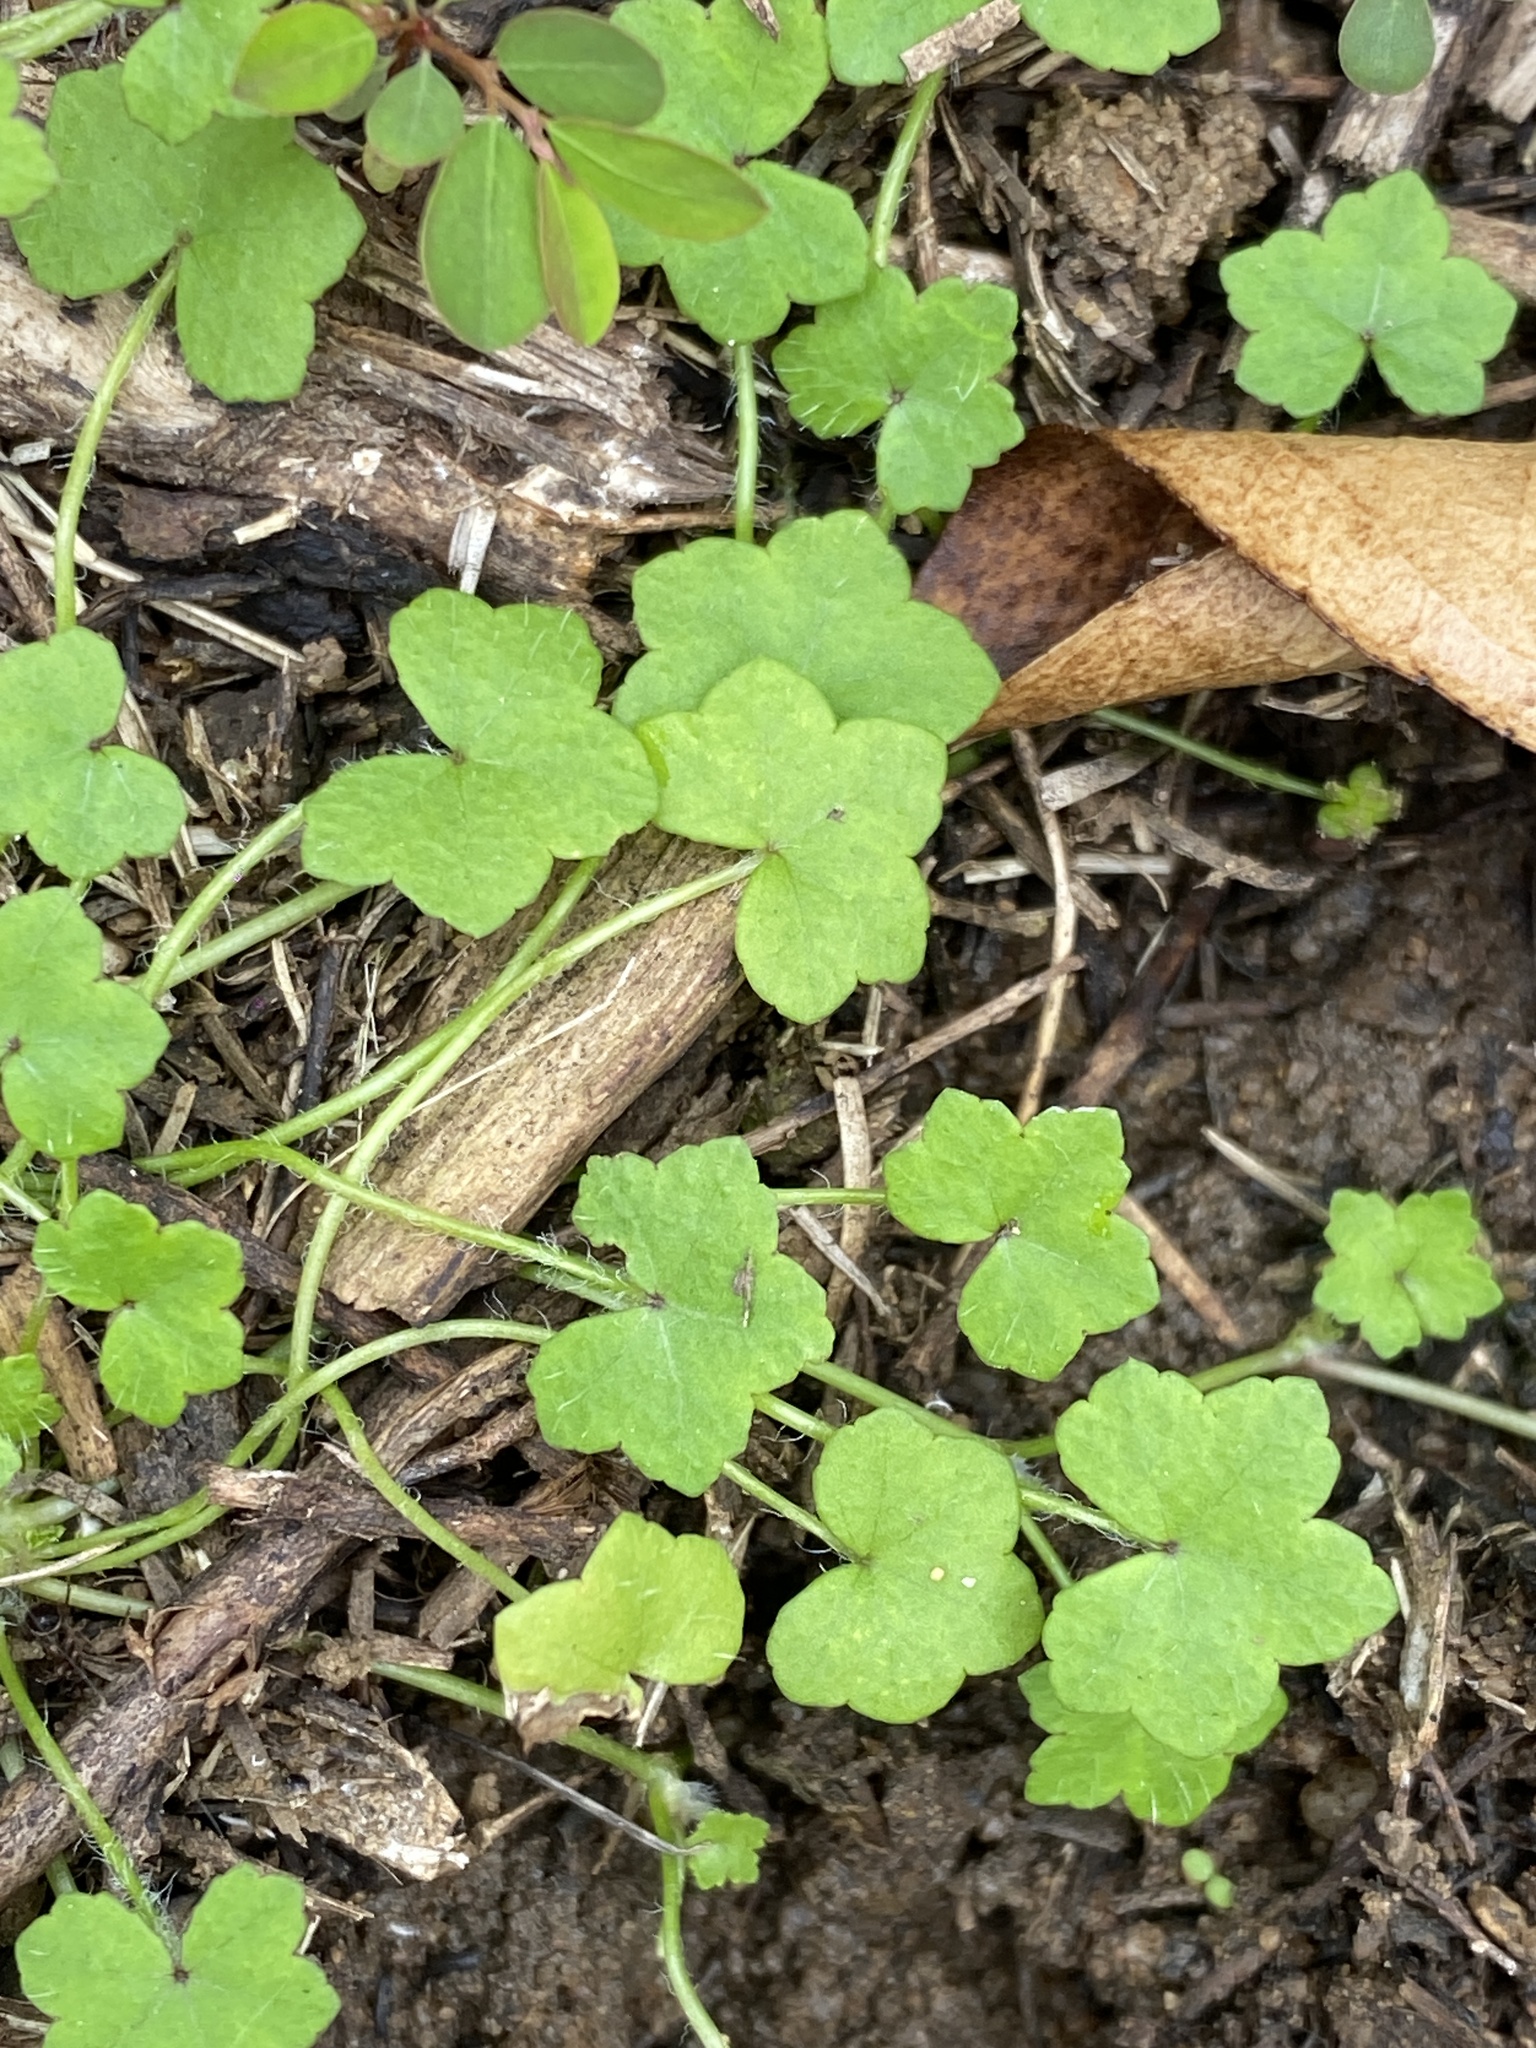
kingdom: Plantae
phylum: Tracheophyta
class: Magnoliopsida
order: Apiales
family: Araliaceae
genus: Hydrocotyle
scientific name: Hydrocotyle acutiloba
